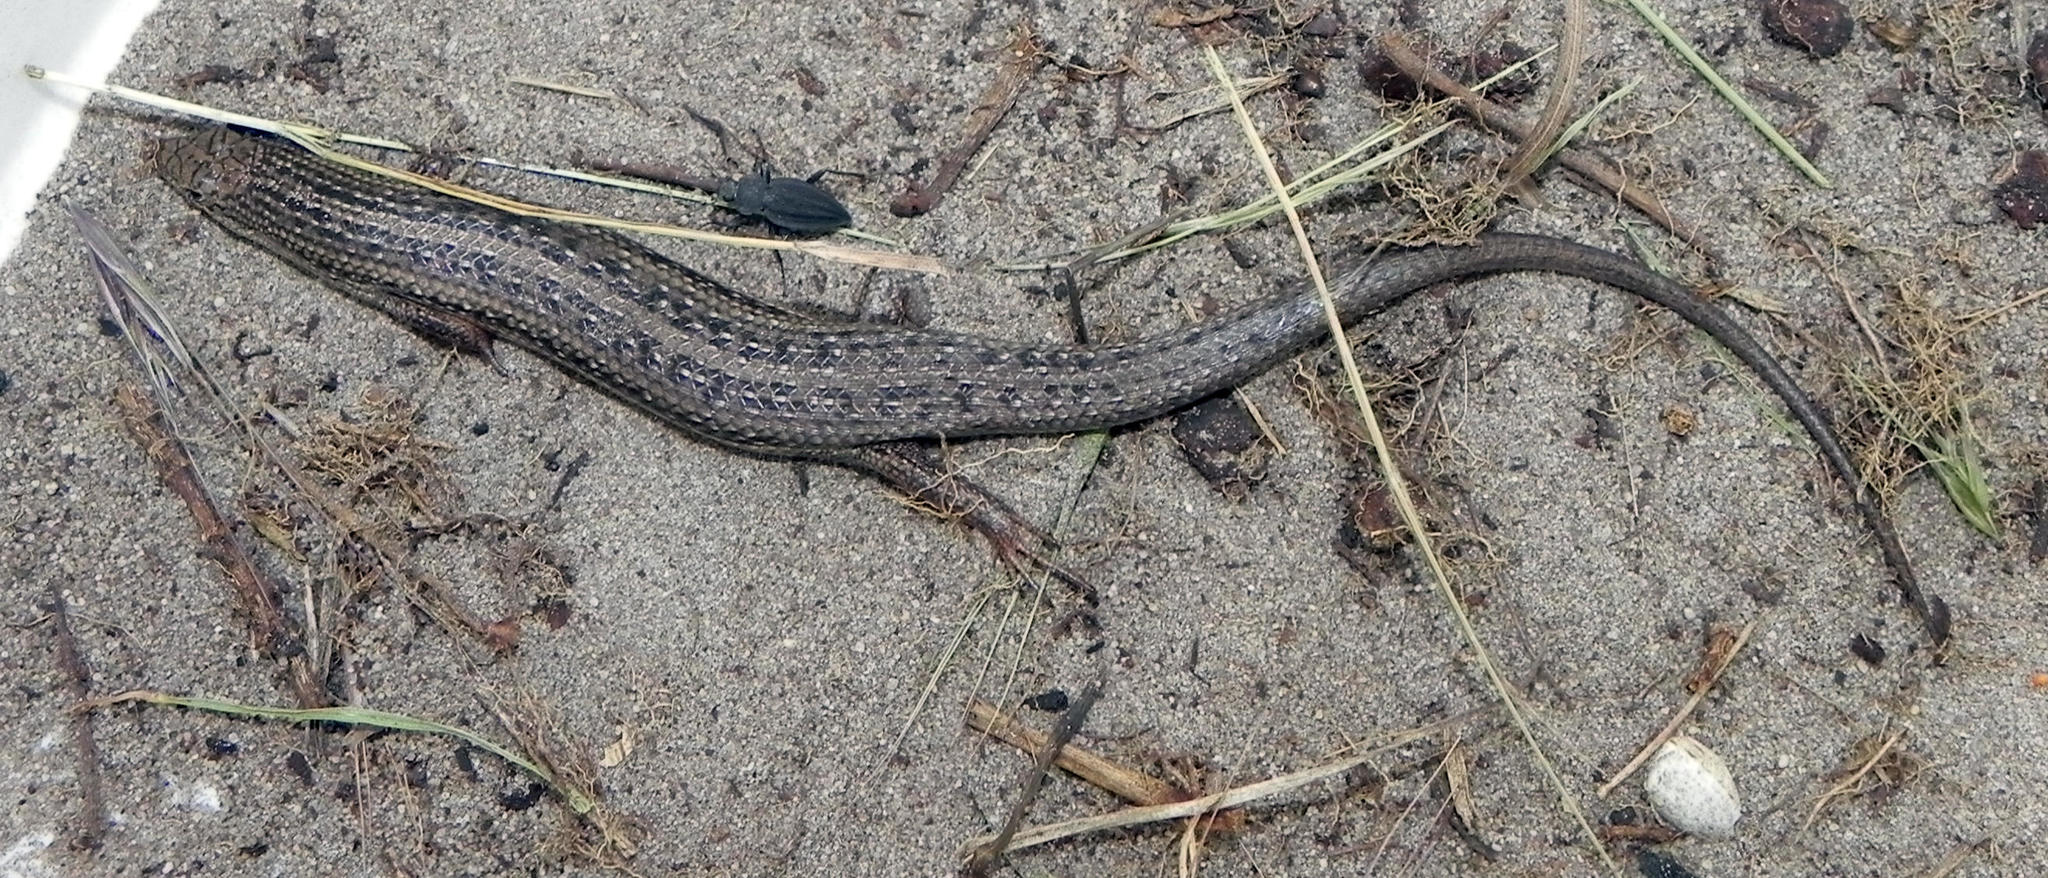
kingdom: Animalia
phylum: Chordata
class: Squamata
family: Scincidae
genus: Trachylepis
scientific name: Trachylepis homalocephala
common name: Red-sided skink
